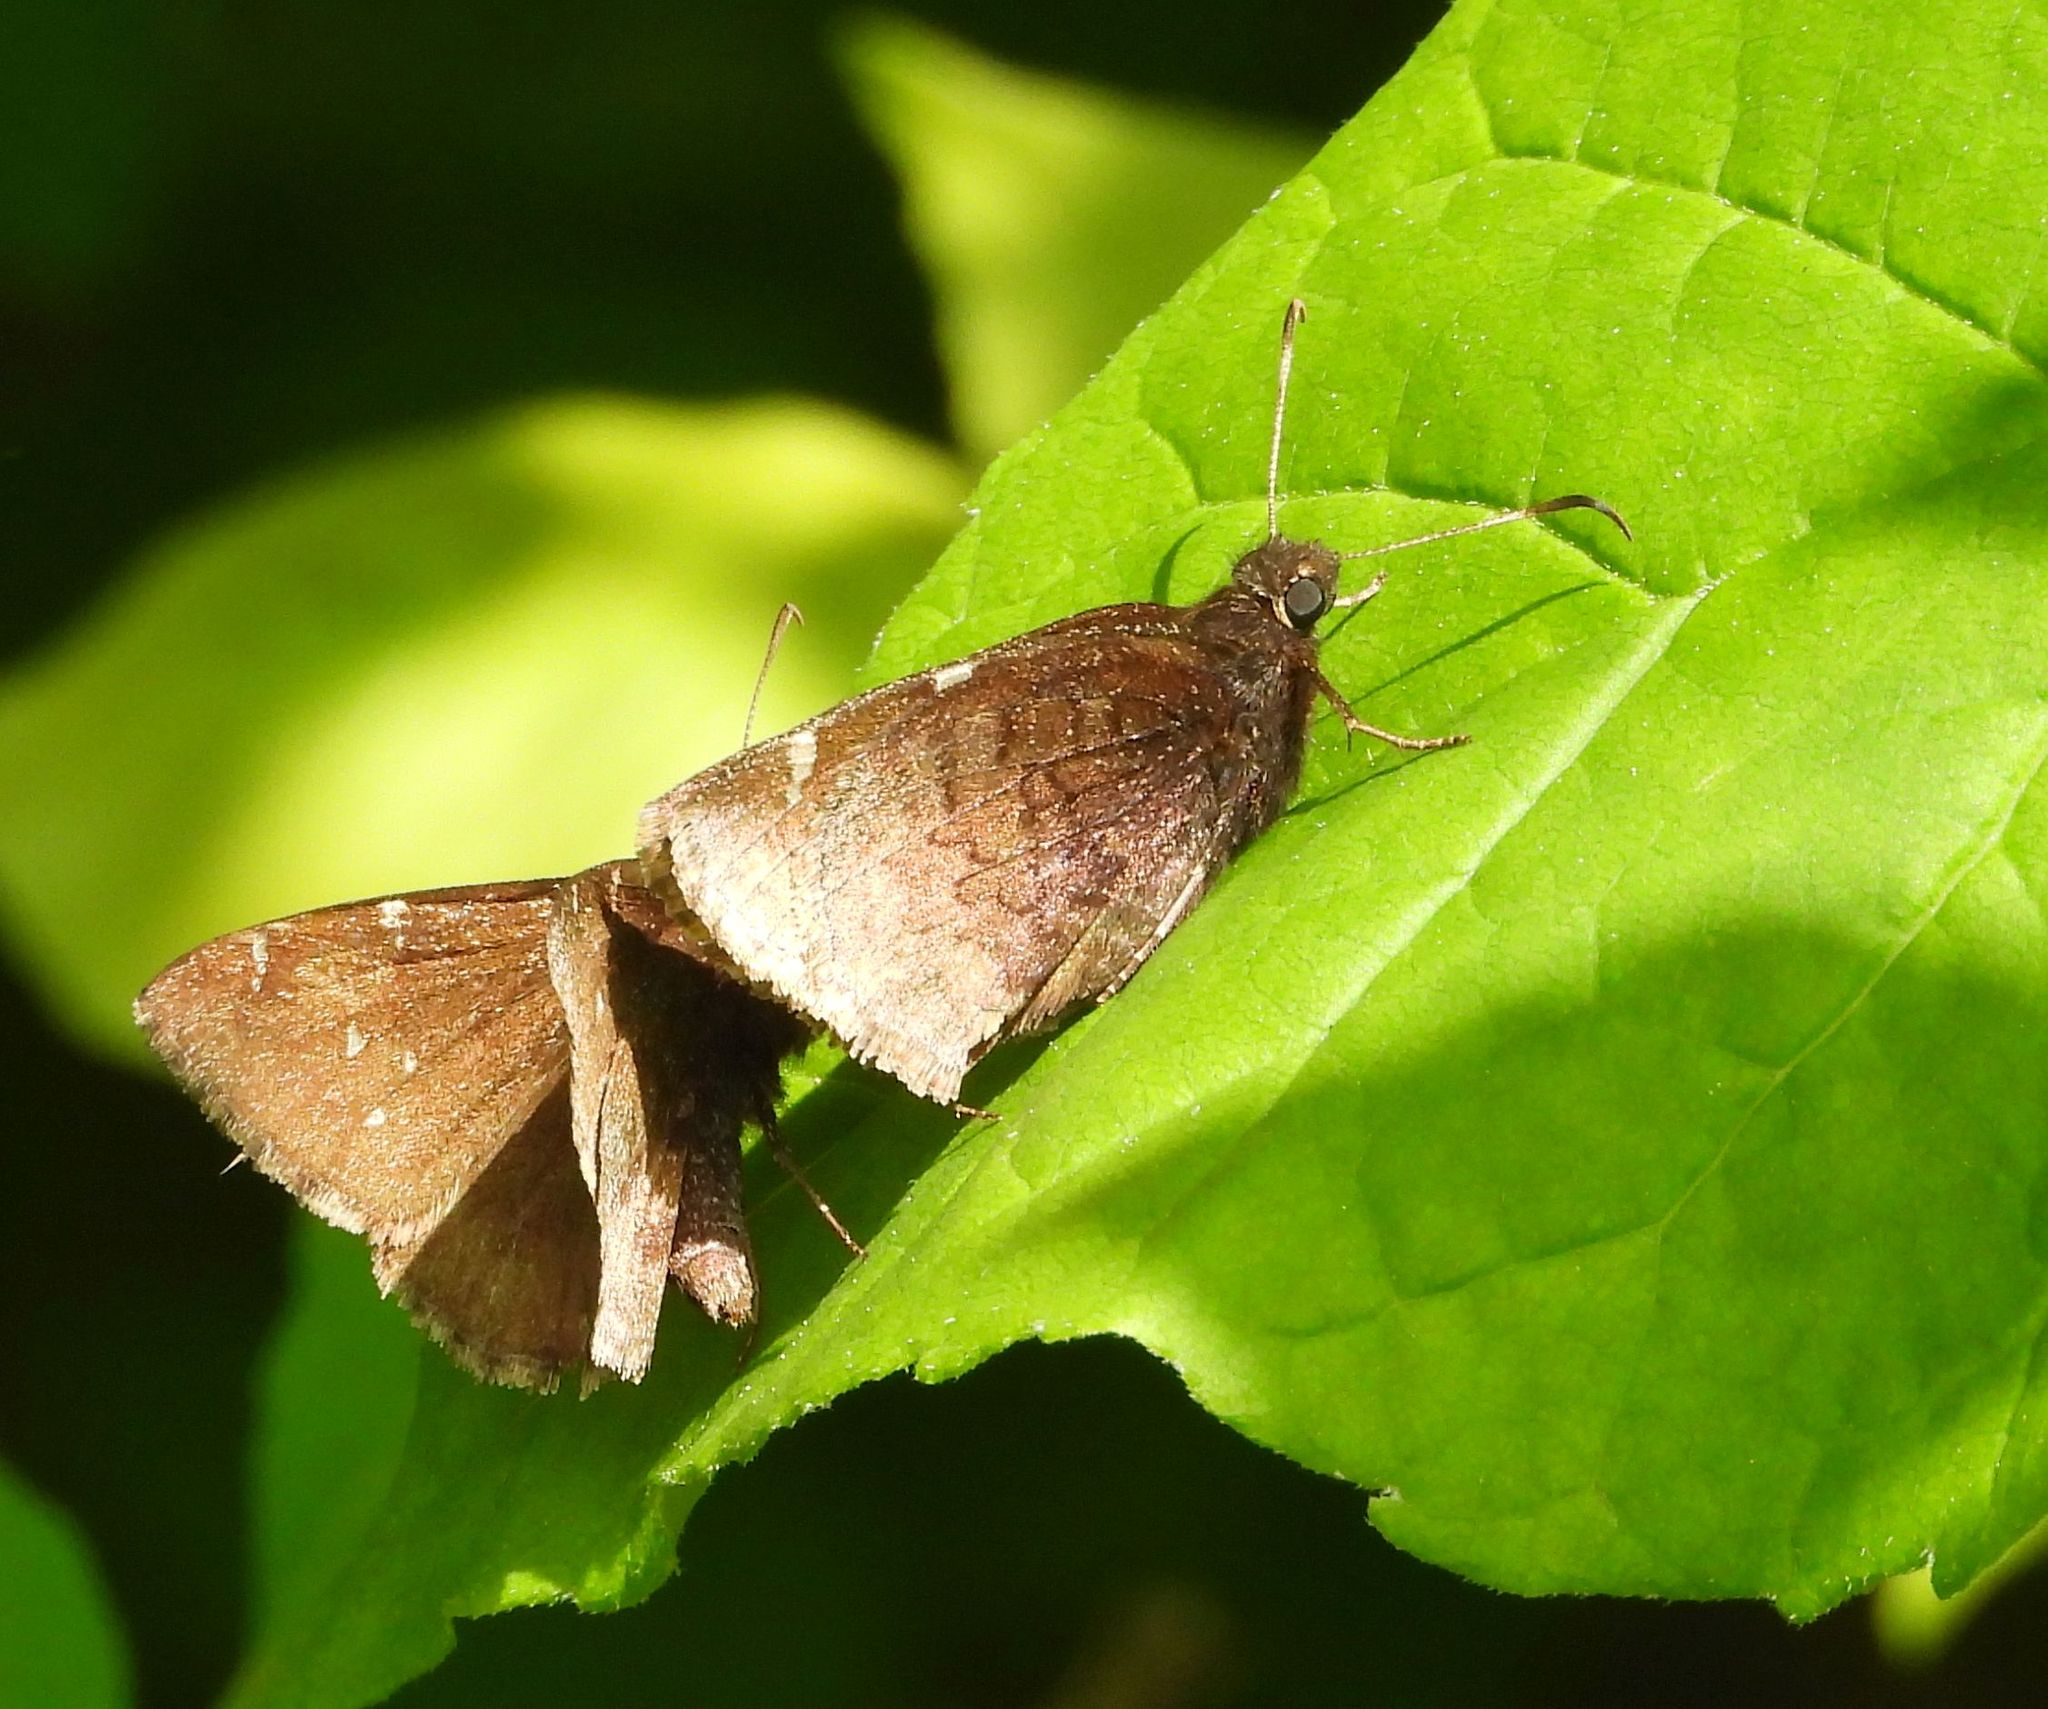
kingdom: Animalia
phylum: Arthropoda
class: Insecta
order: Lepidoptera
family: Hesperiidae
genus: Thorybes
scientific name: Thorybes pylades
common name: Northern cloudywing
